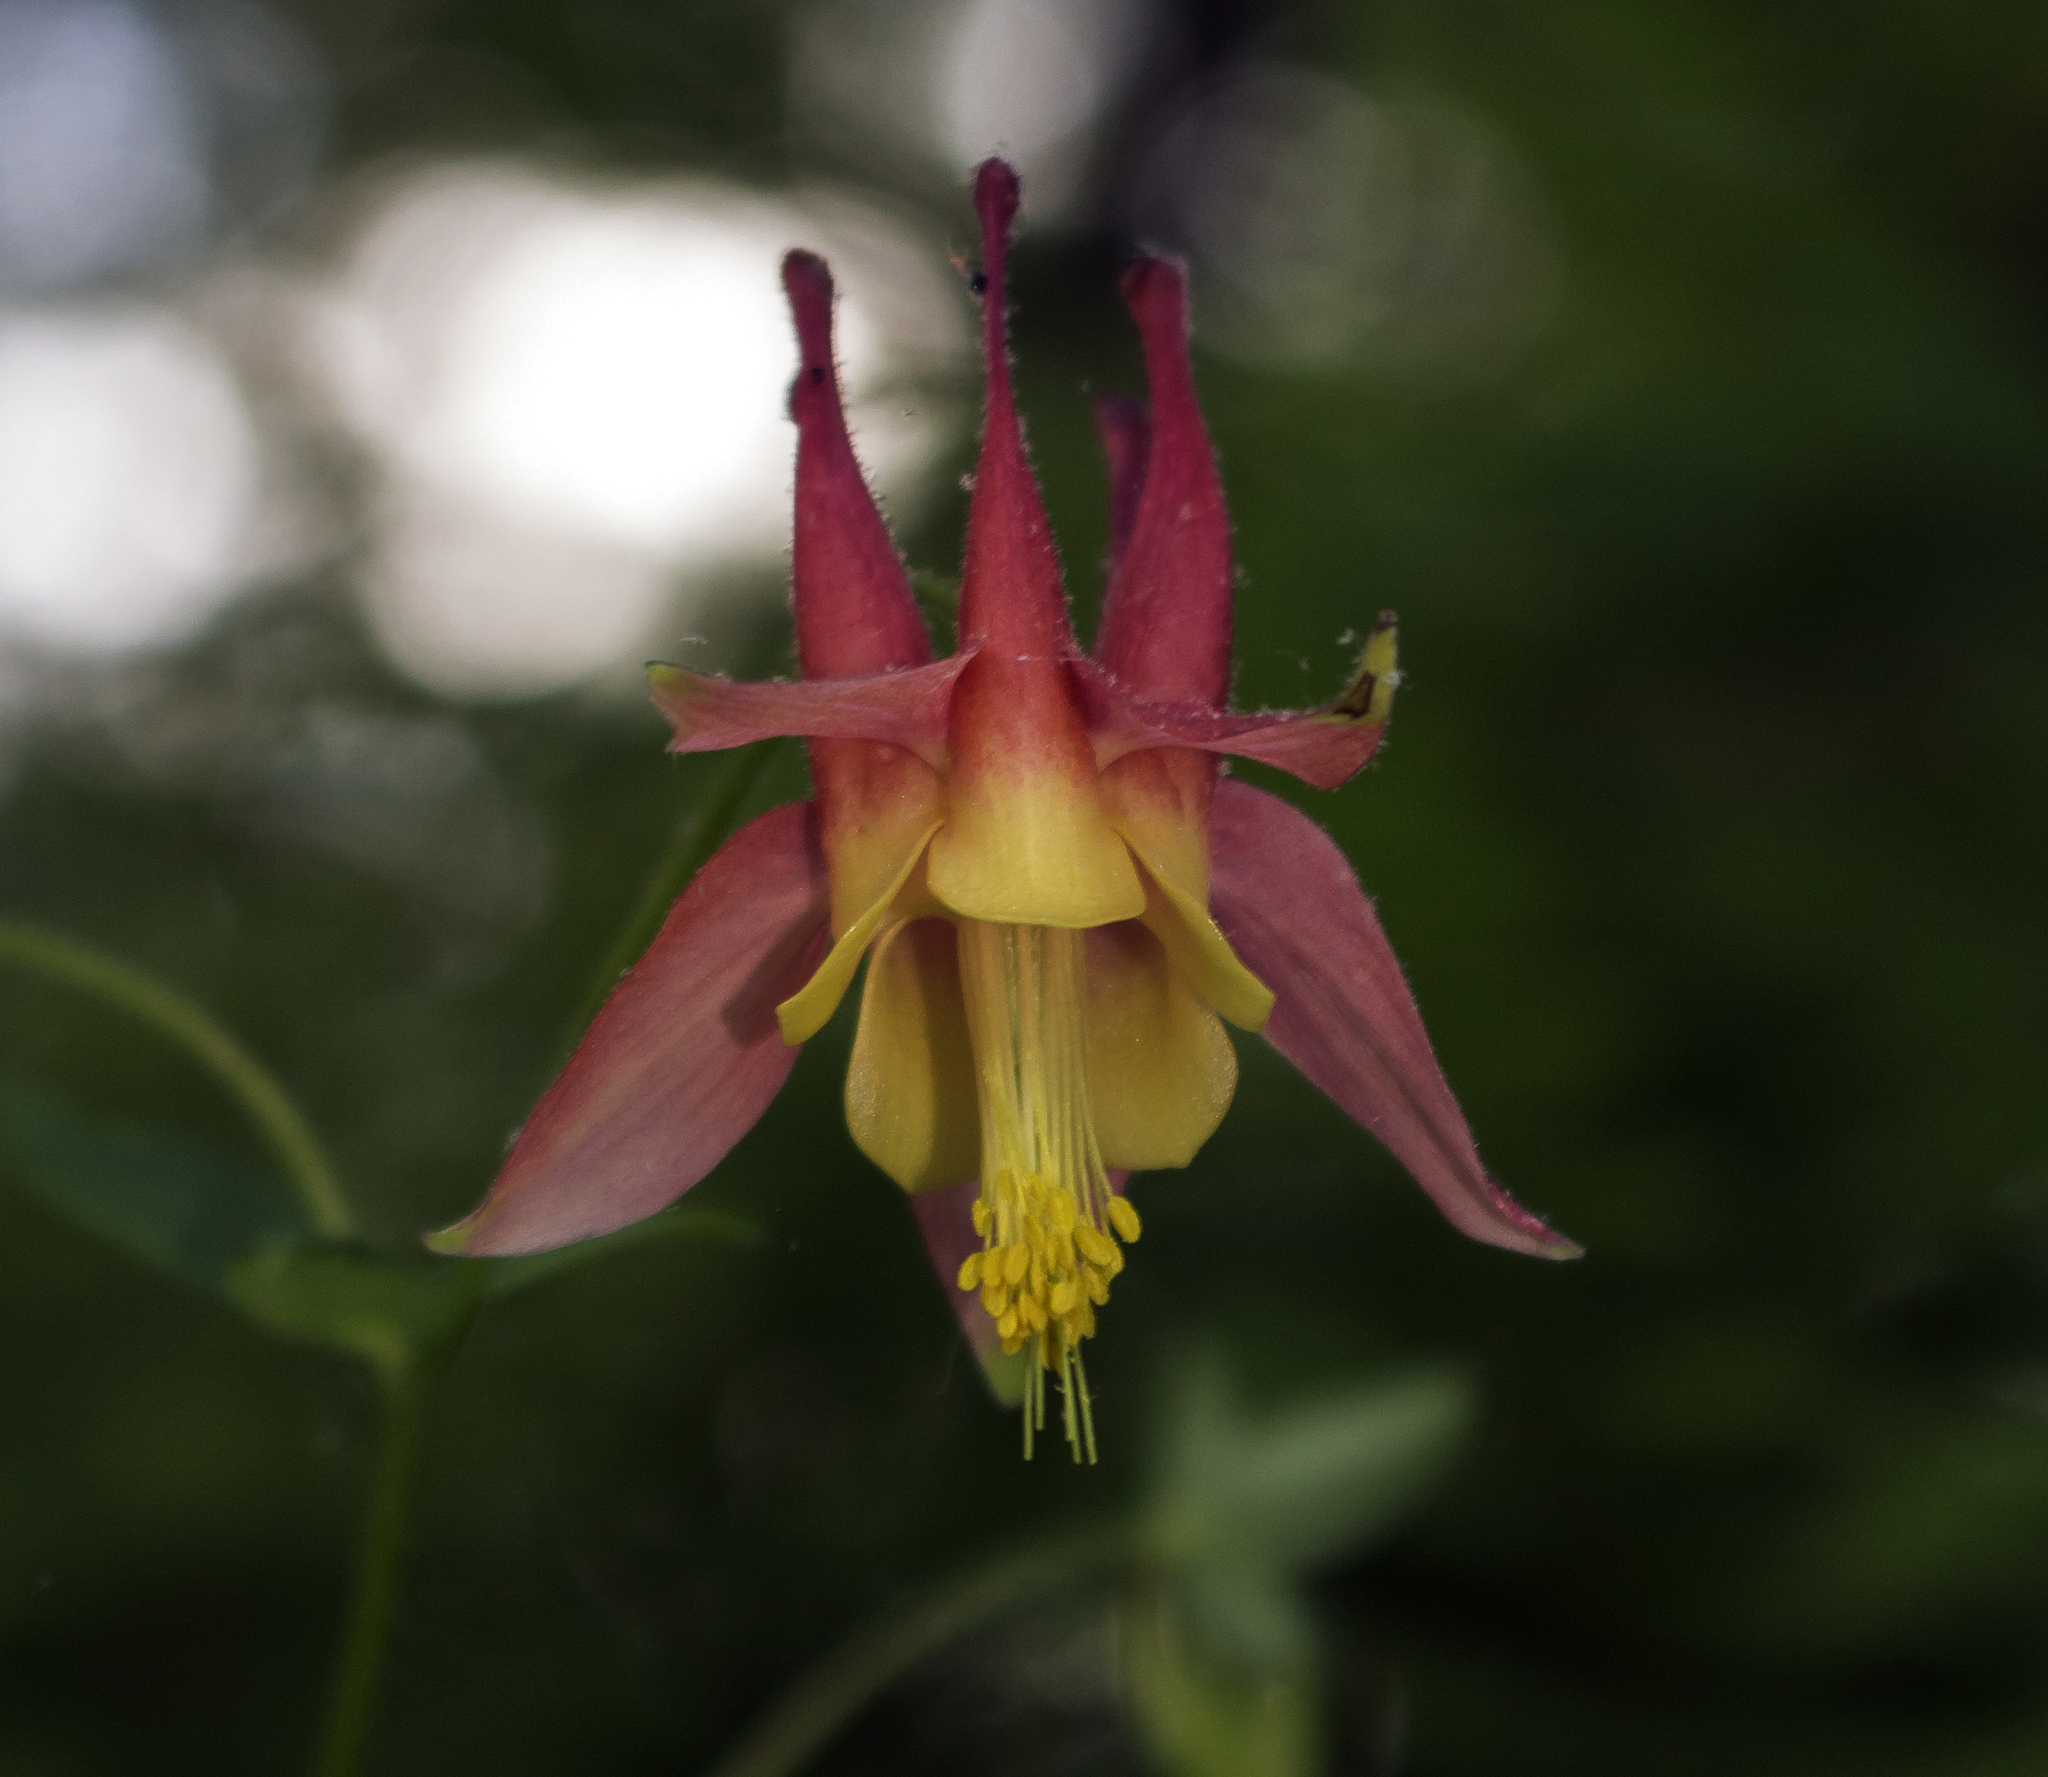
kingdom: Plantae
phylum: Tracheophyta
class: Magnoliopsida
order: Ranunculales
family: Ranunculaceae
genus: Aquilegia
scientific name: Aquilegia canadensis
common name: American columbine
